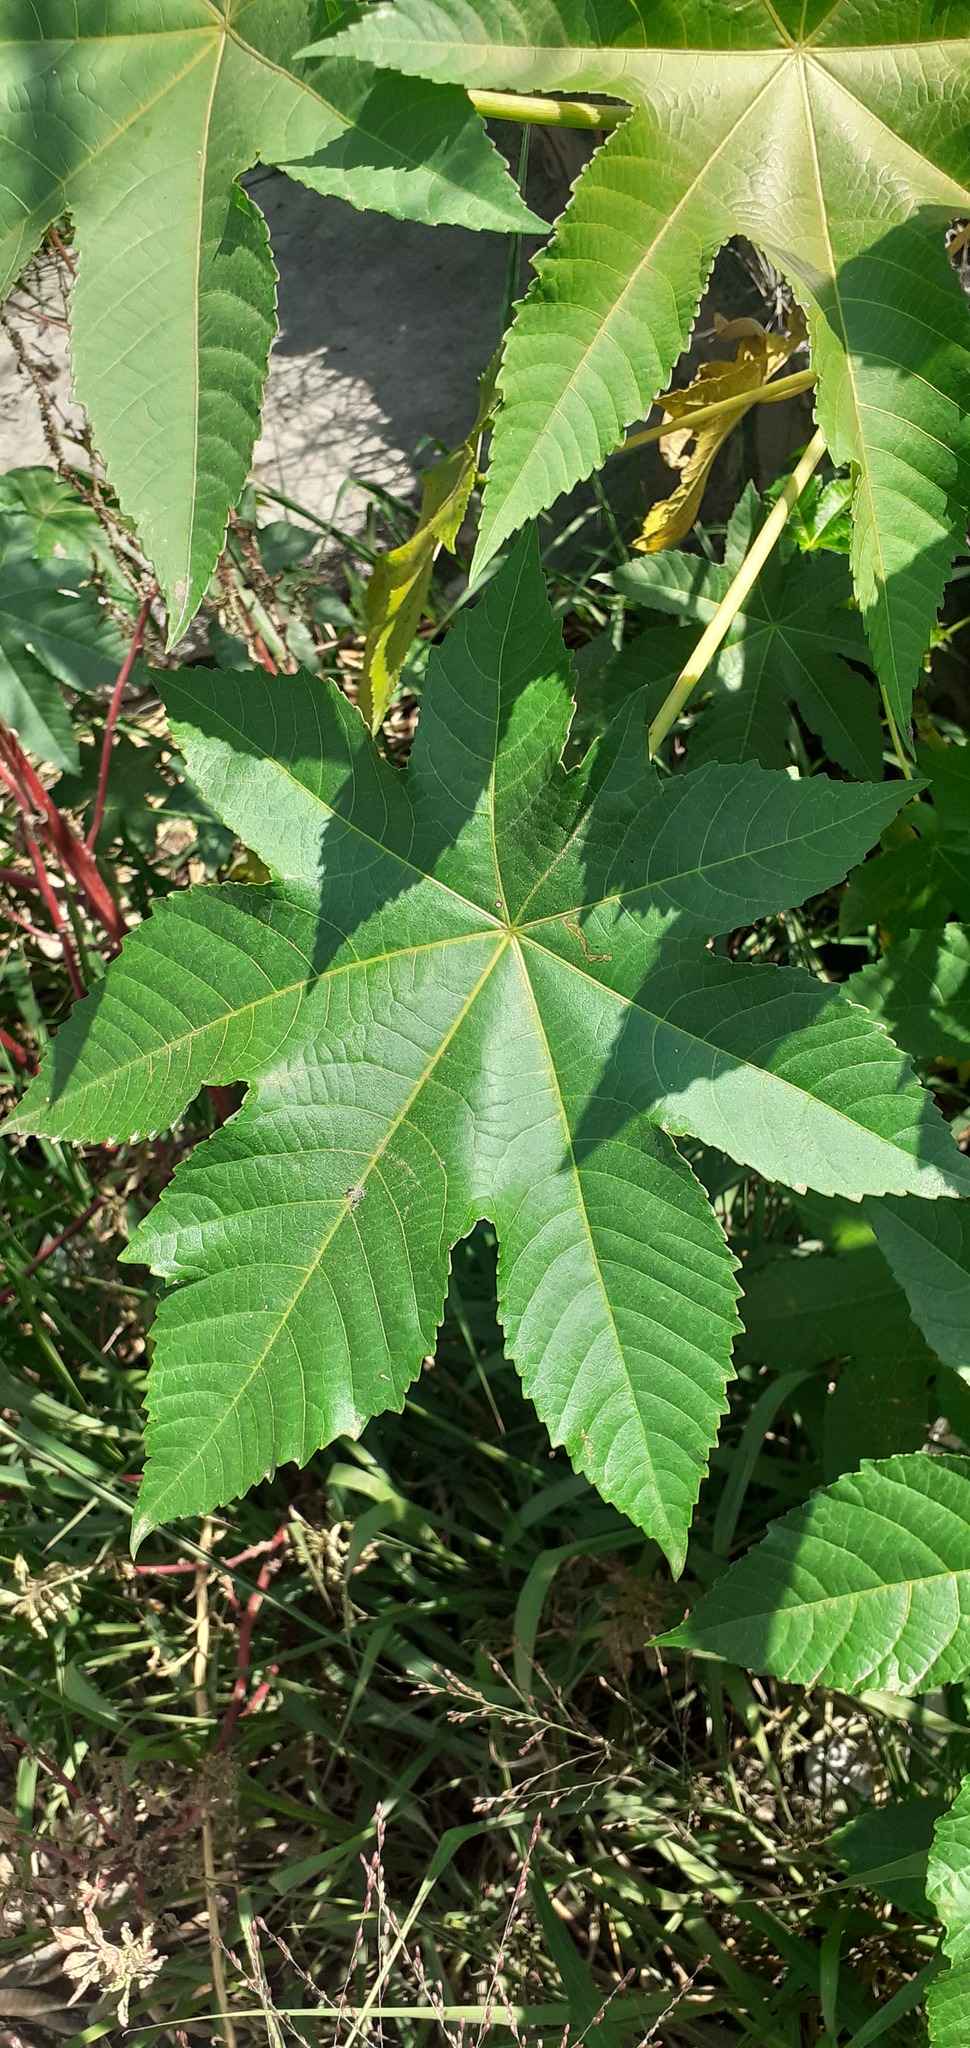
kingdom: Plantae
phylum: Tracheophyta
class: Magnoliopsida
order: Malpighiales
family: Euphorbiaceae
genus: Ricinus
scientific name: Ricinus communis
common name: Castor-oil-plant
